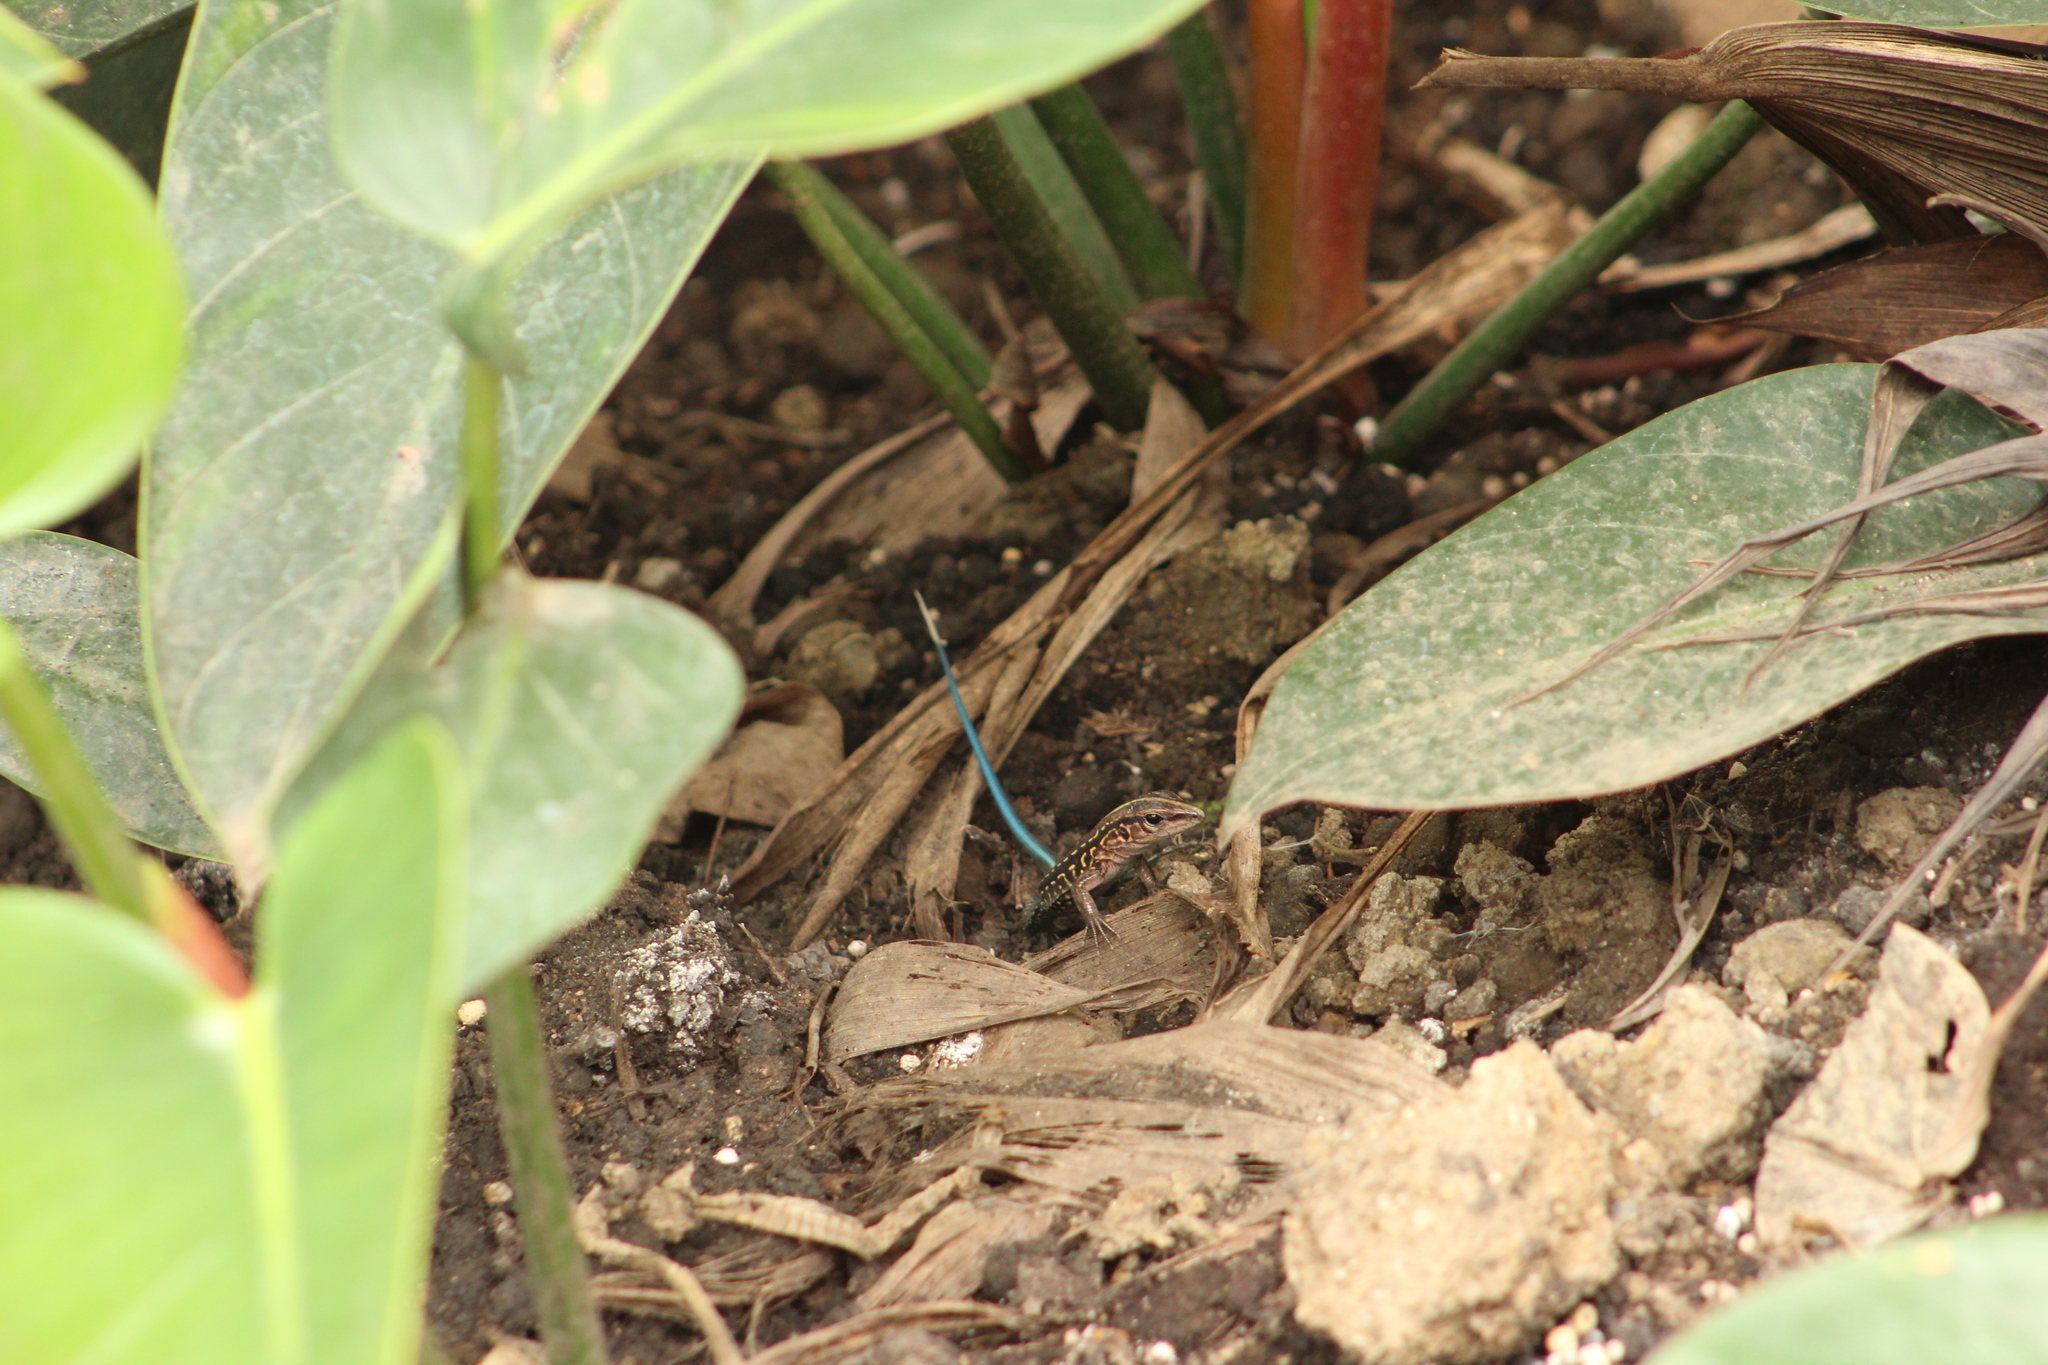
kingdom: Animalia
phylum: Chordata
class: Squamata
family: Teiidae
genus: Holcosus
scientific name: Holcosus festivus
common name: Middle american ameiva
